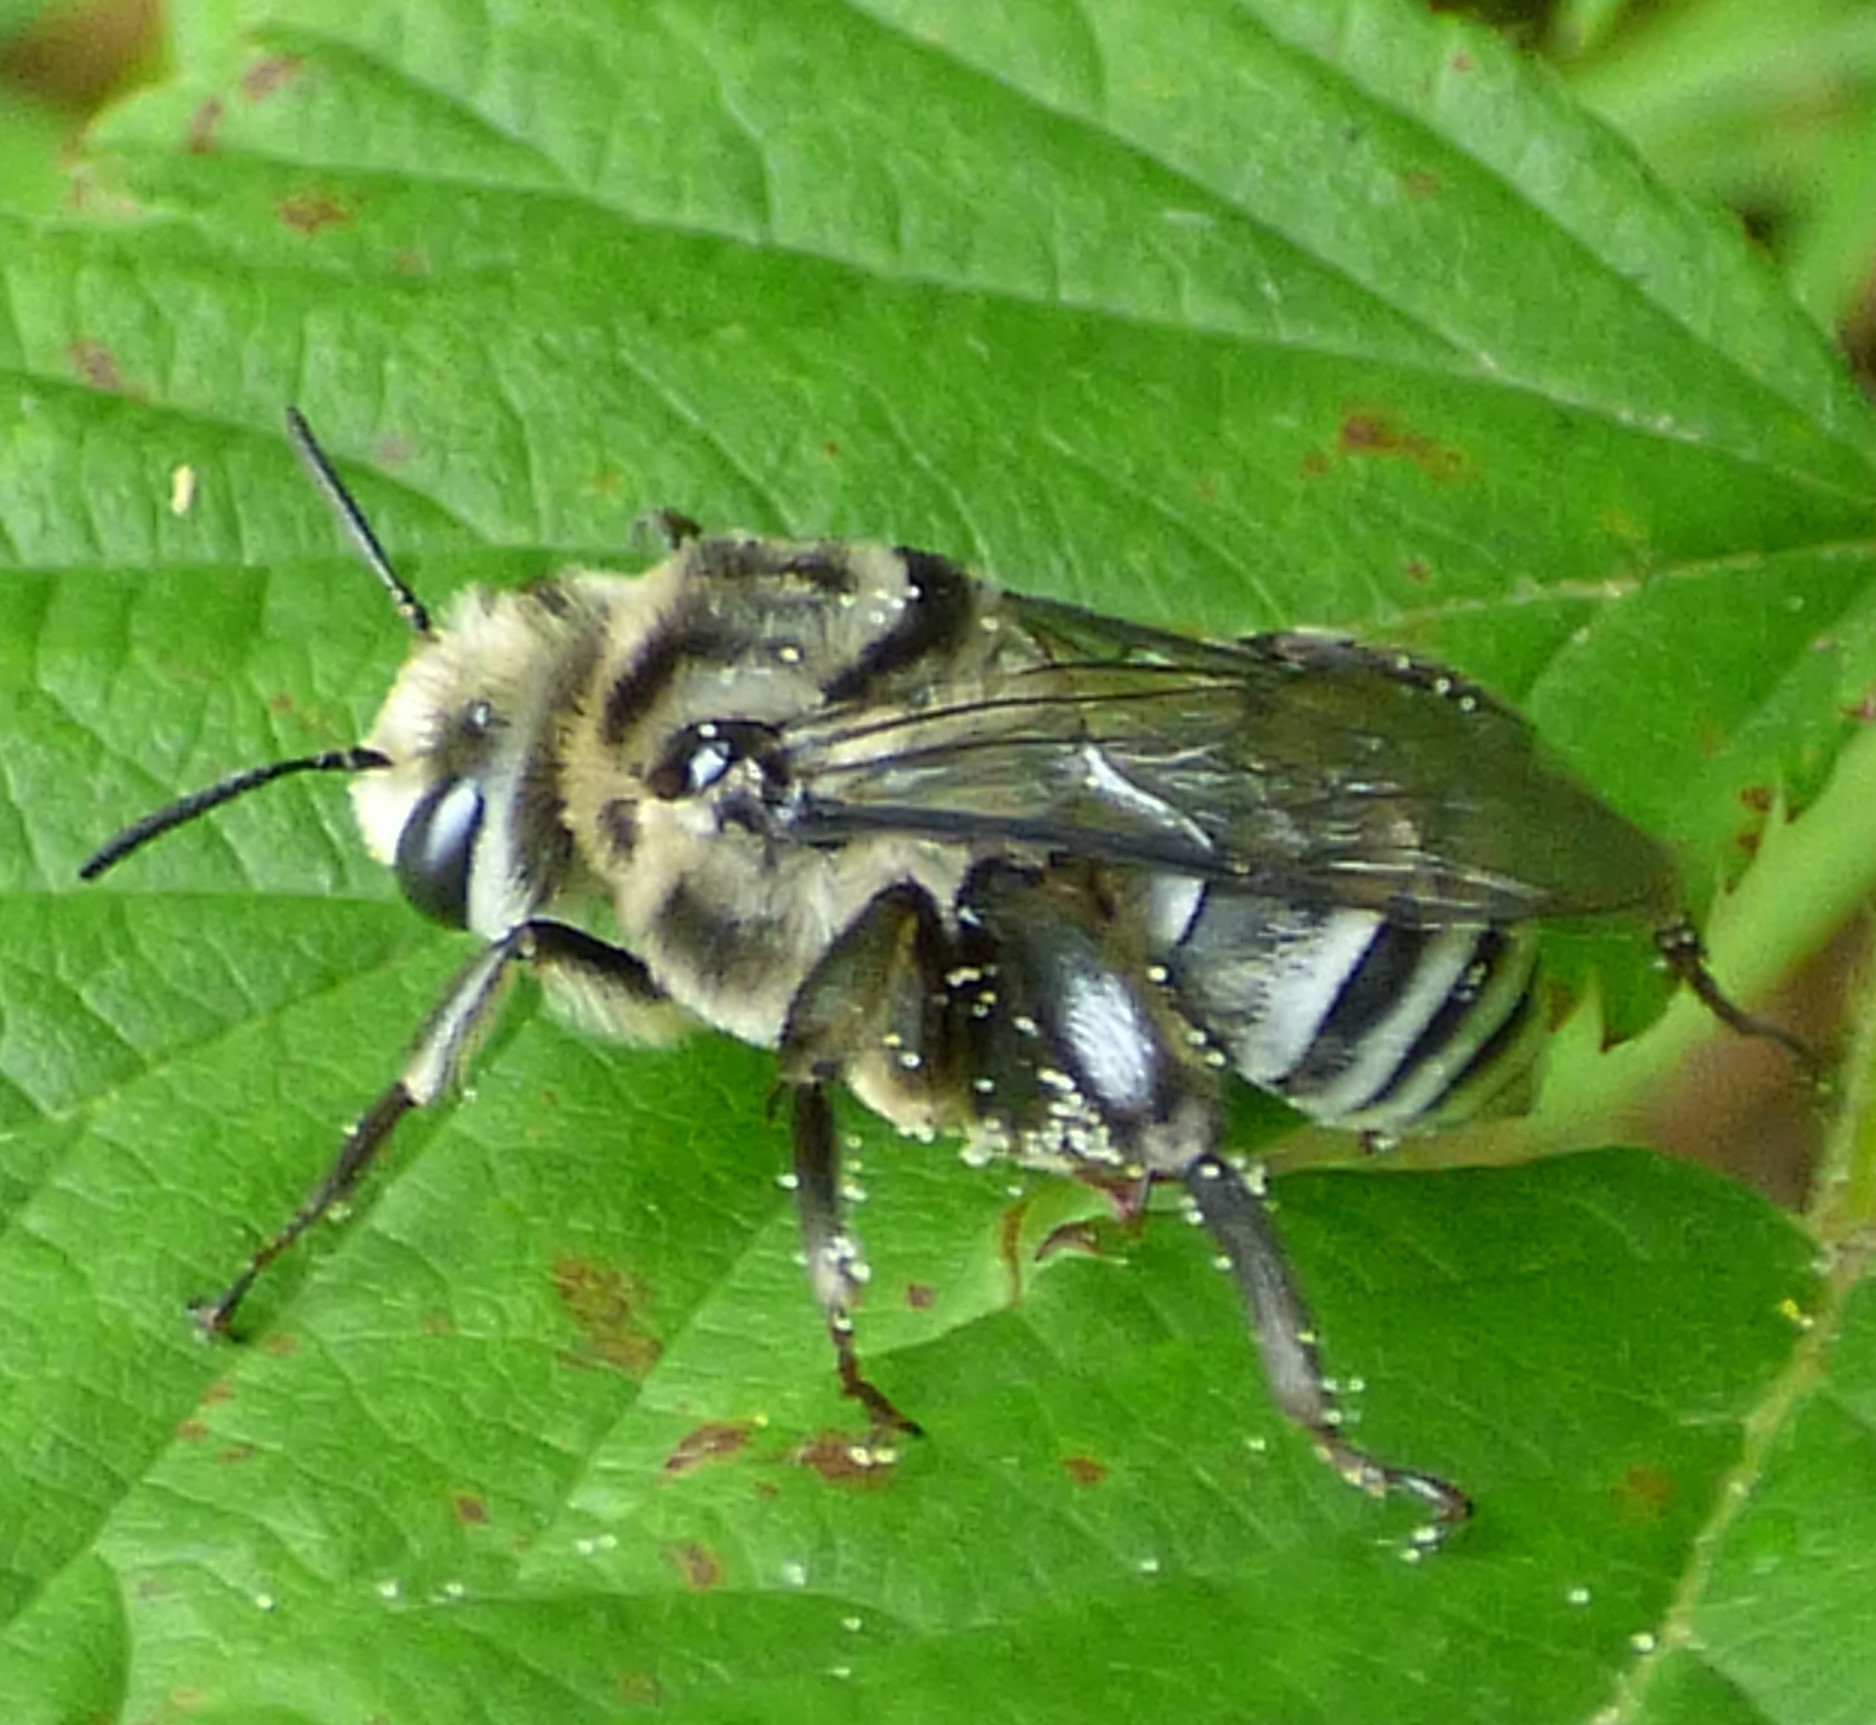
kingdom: Animalia
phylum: Arthropoda
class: Insecta
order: Hymenoptera
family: Apidae
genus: Melitoma
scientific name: Melitoma taurea
